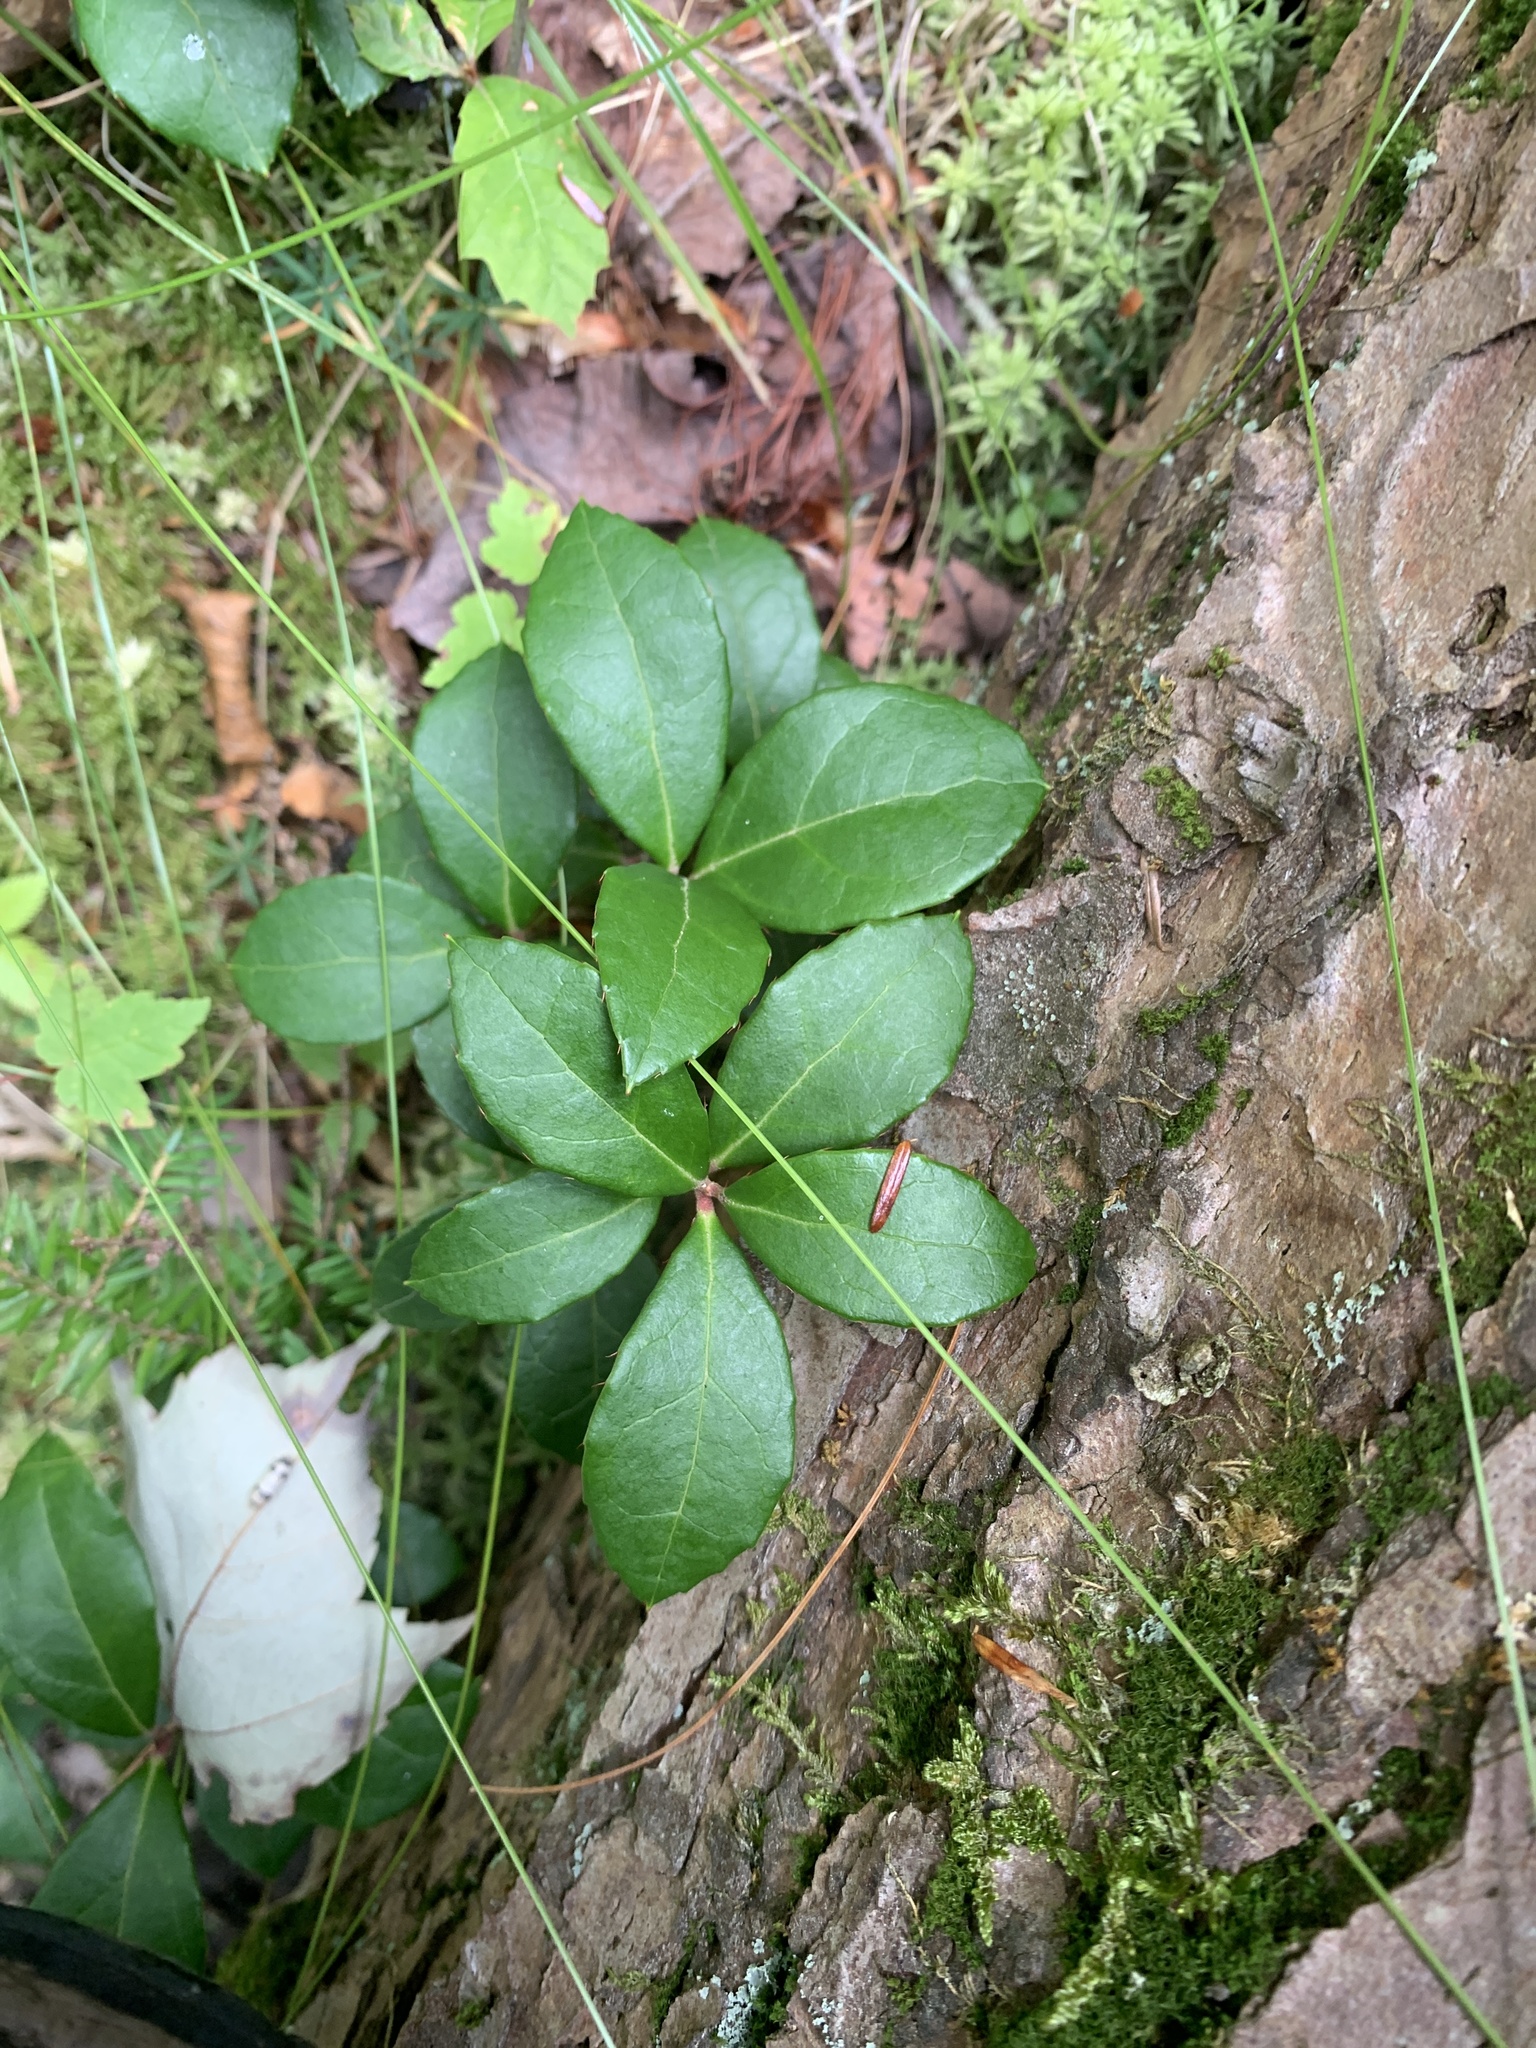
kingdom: Plantae
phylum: Tracheophyta
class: Magnoliopsida
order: Ericales
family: Ericaceae
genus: Gaultheria
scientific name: Gaultheria procumbens
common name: Checkerberry
